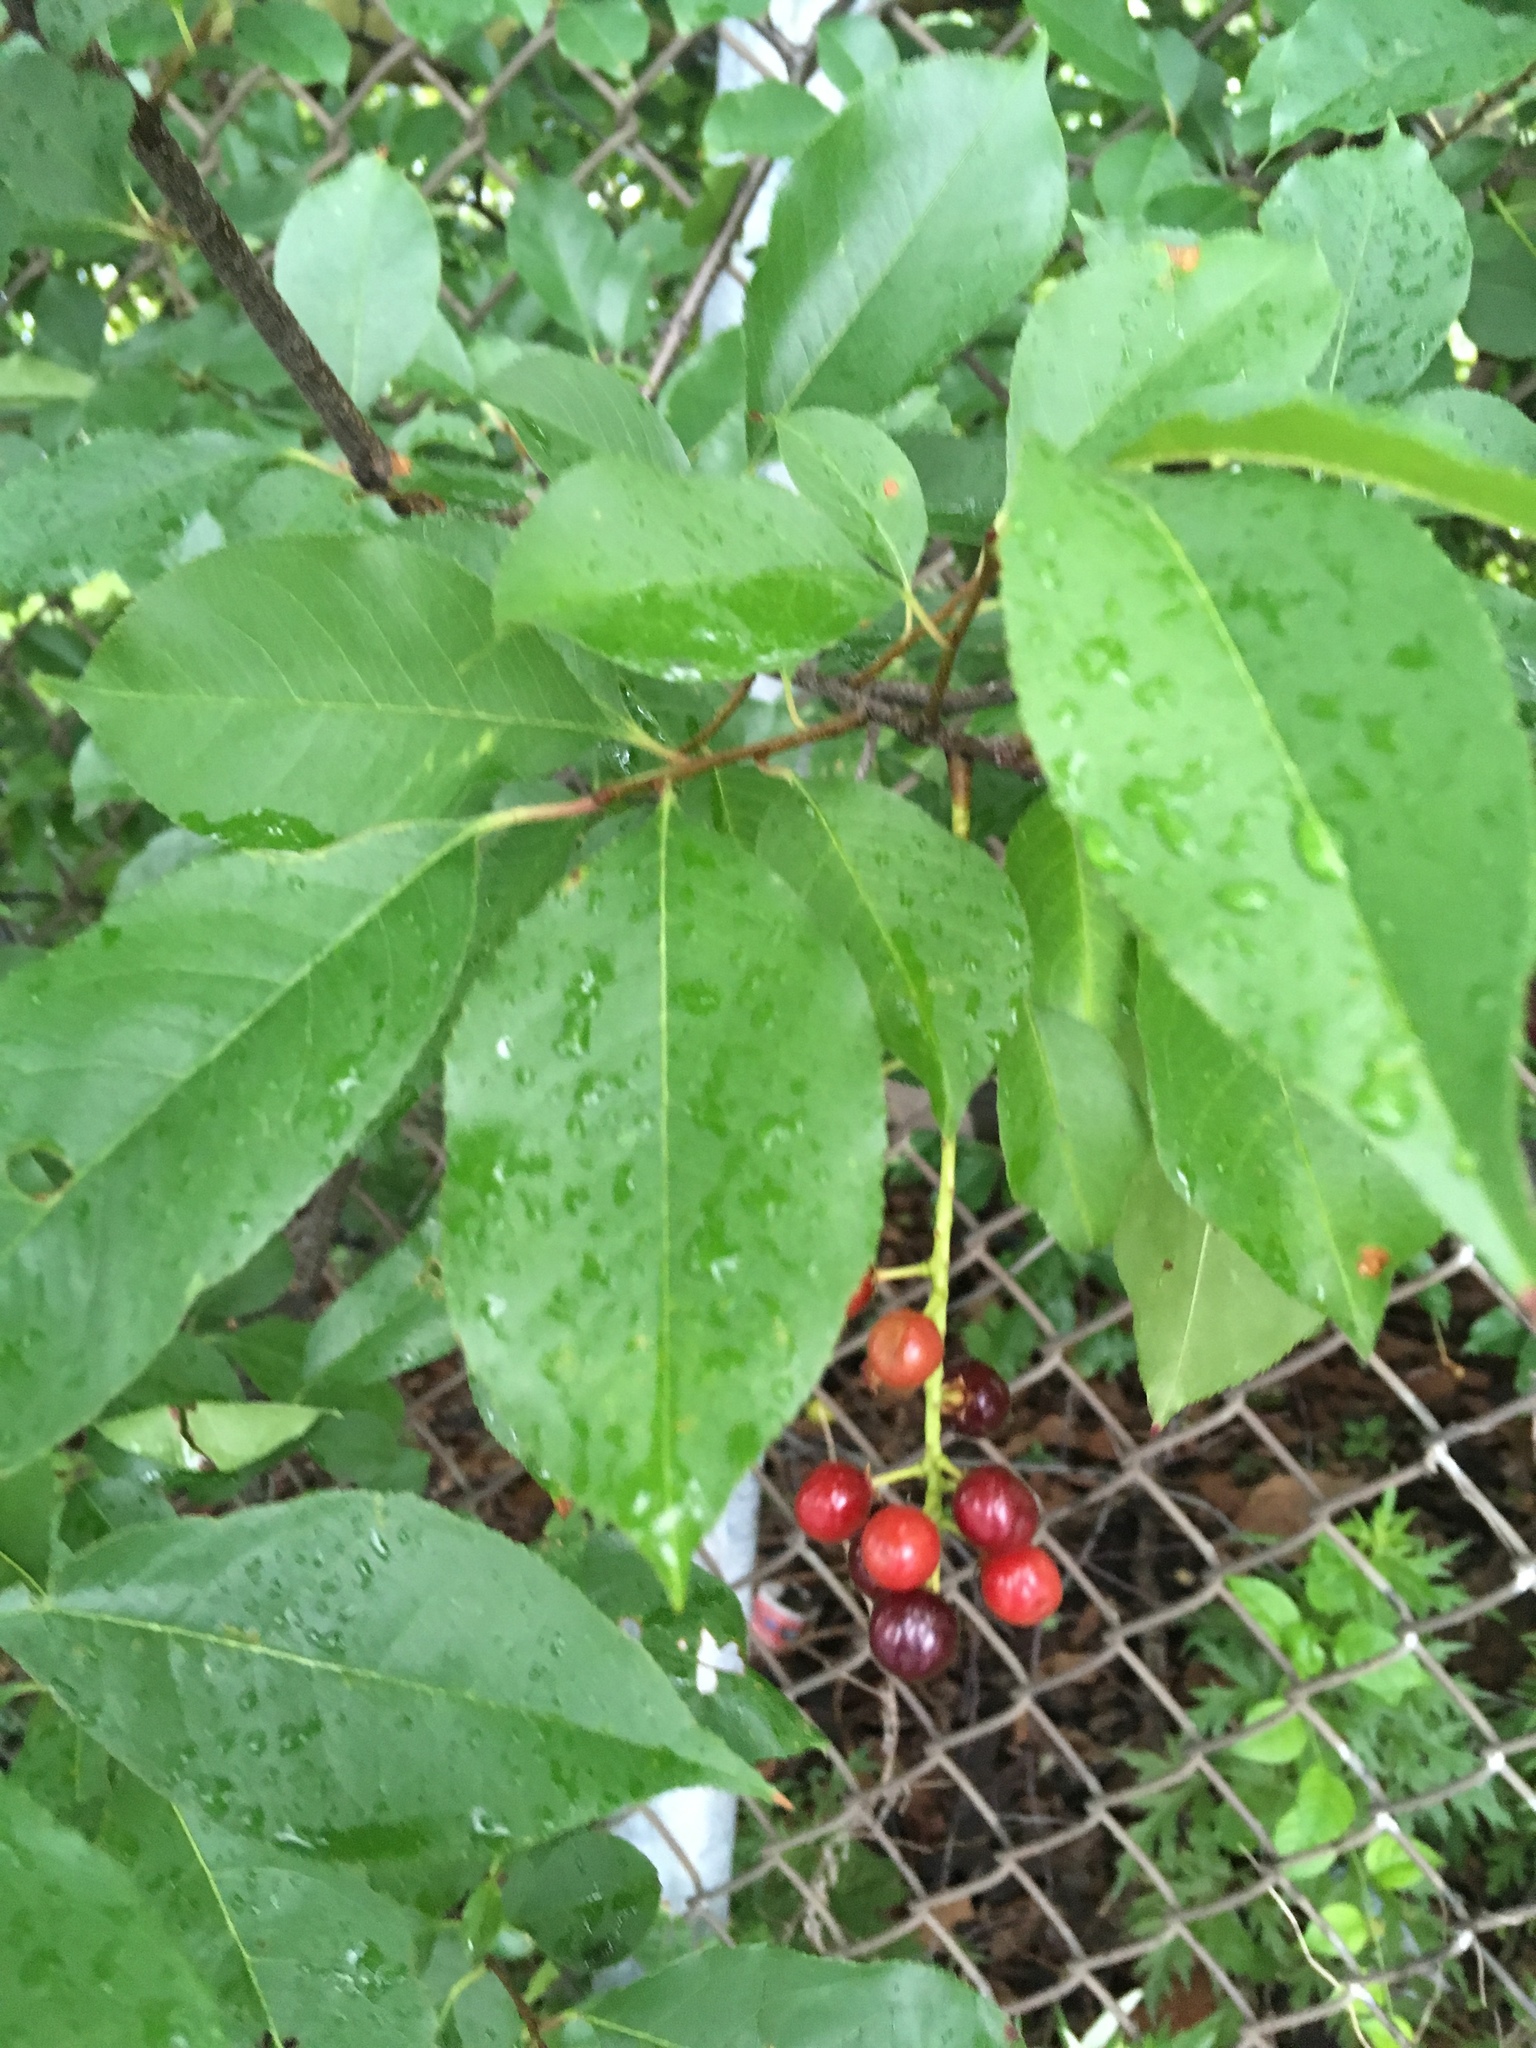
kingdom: Plantae
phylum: Tracheophyta
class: Magnoliopsida
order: Rosales
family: Rosaceae
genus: Prunus
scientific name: Prunus serotina
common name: Black cherry
